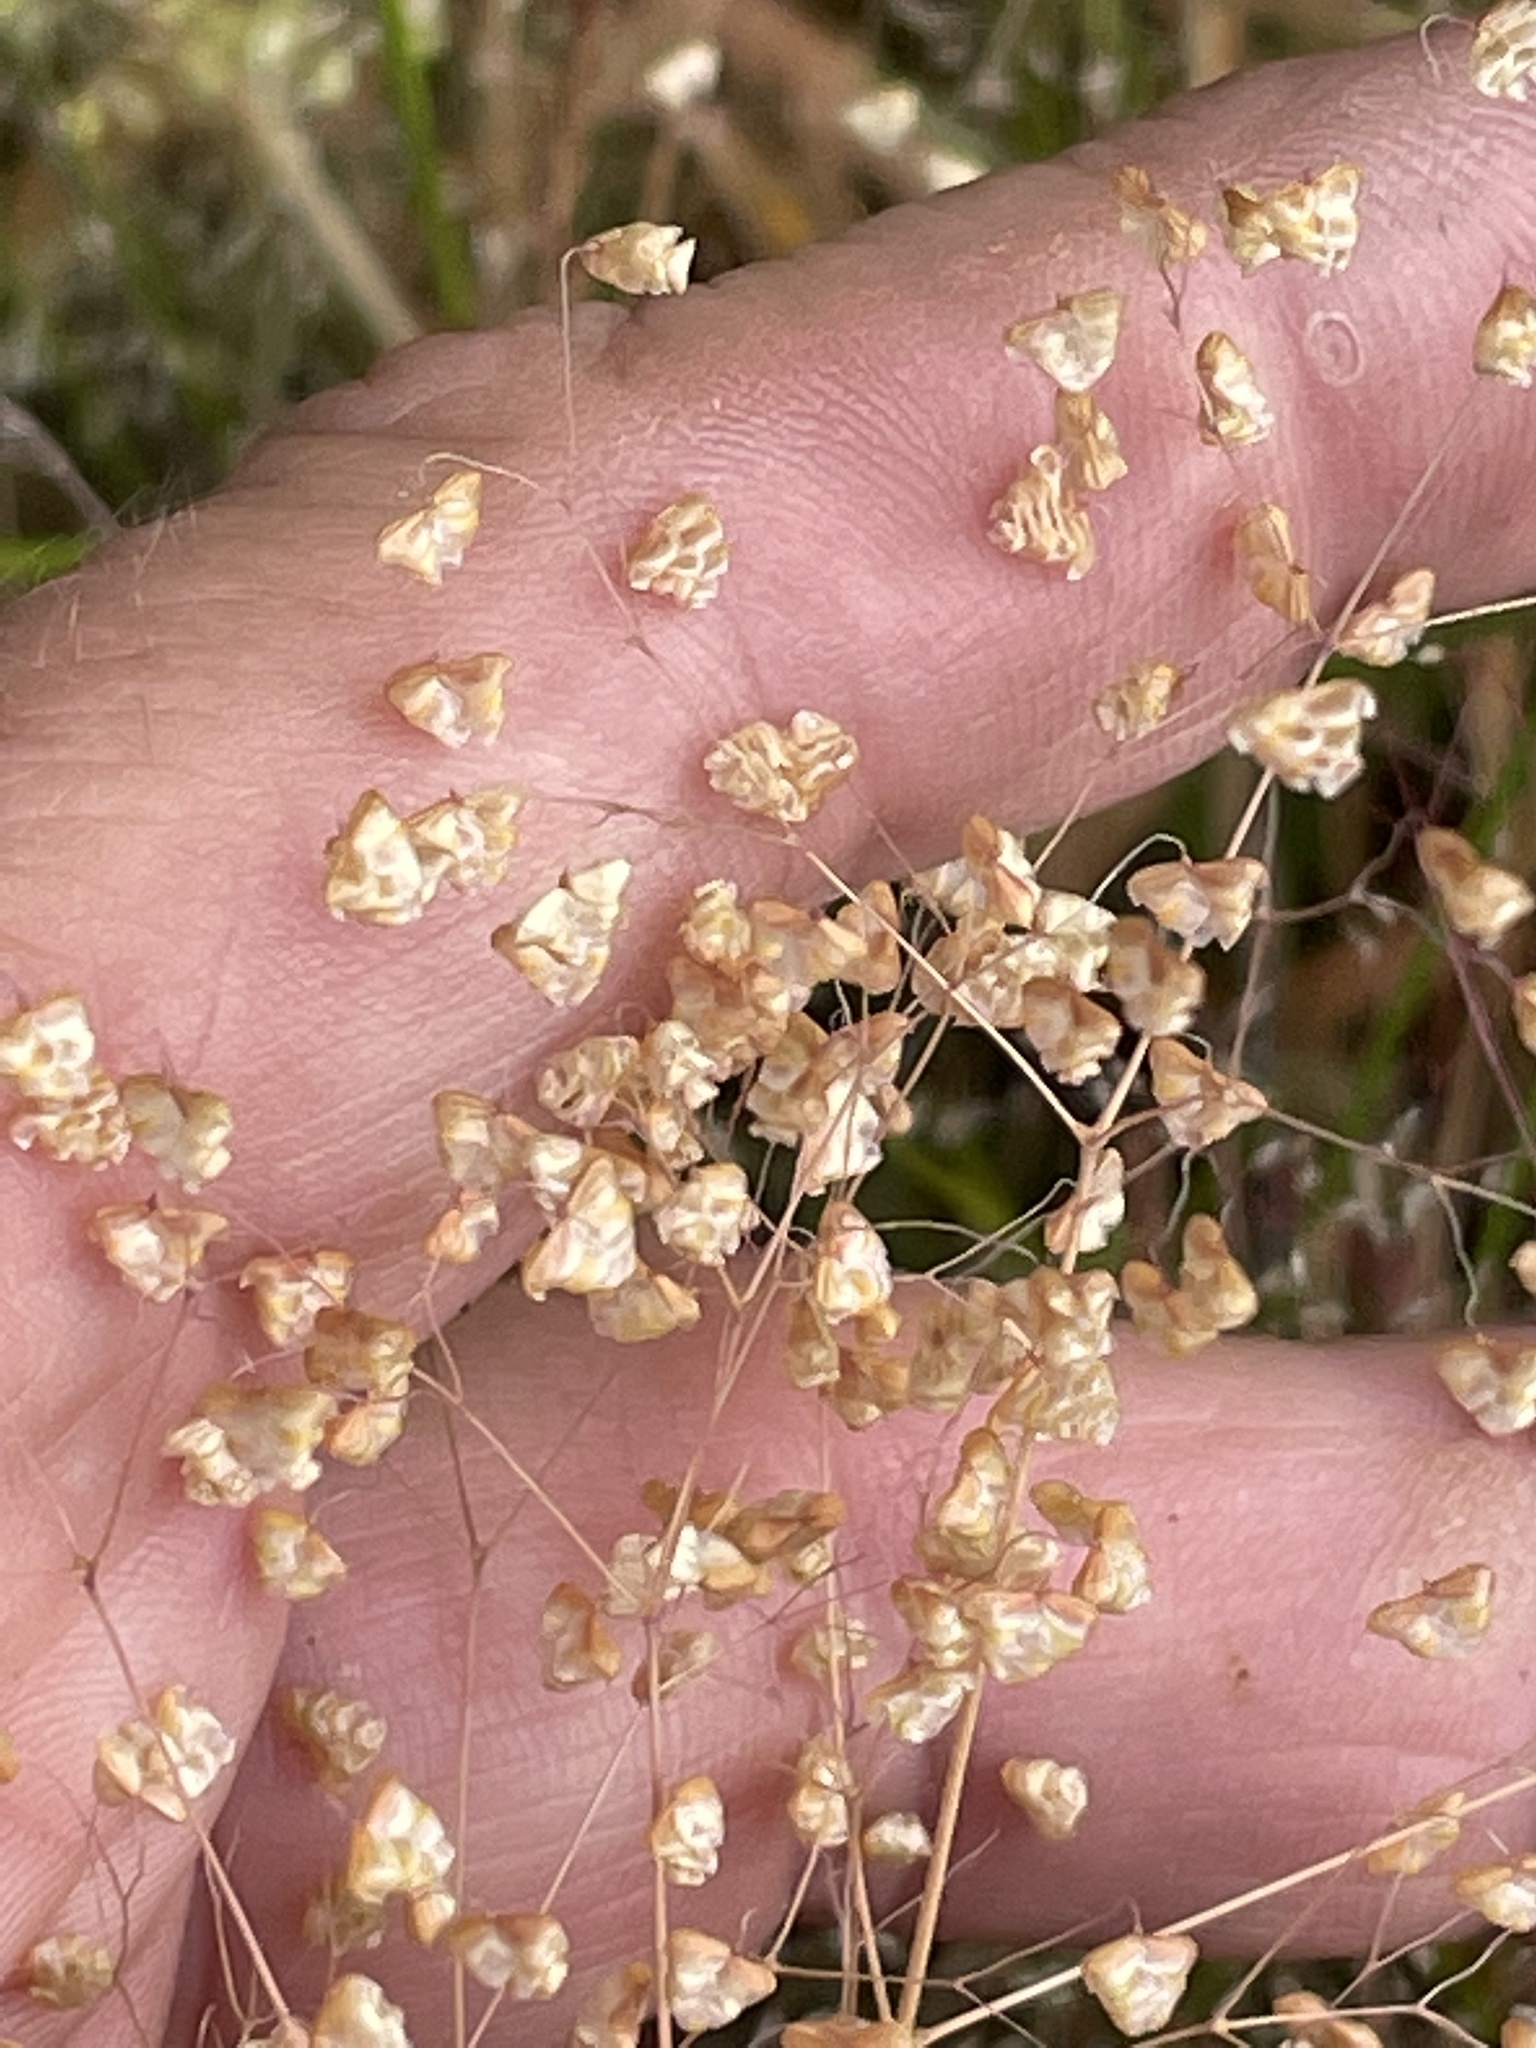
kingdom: Plantae
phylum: Tracheophyta
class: Liliopsida
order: Poales
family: Poaceae
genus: Briza
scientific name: Briza minor
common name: Lesser quaking-grass
